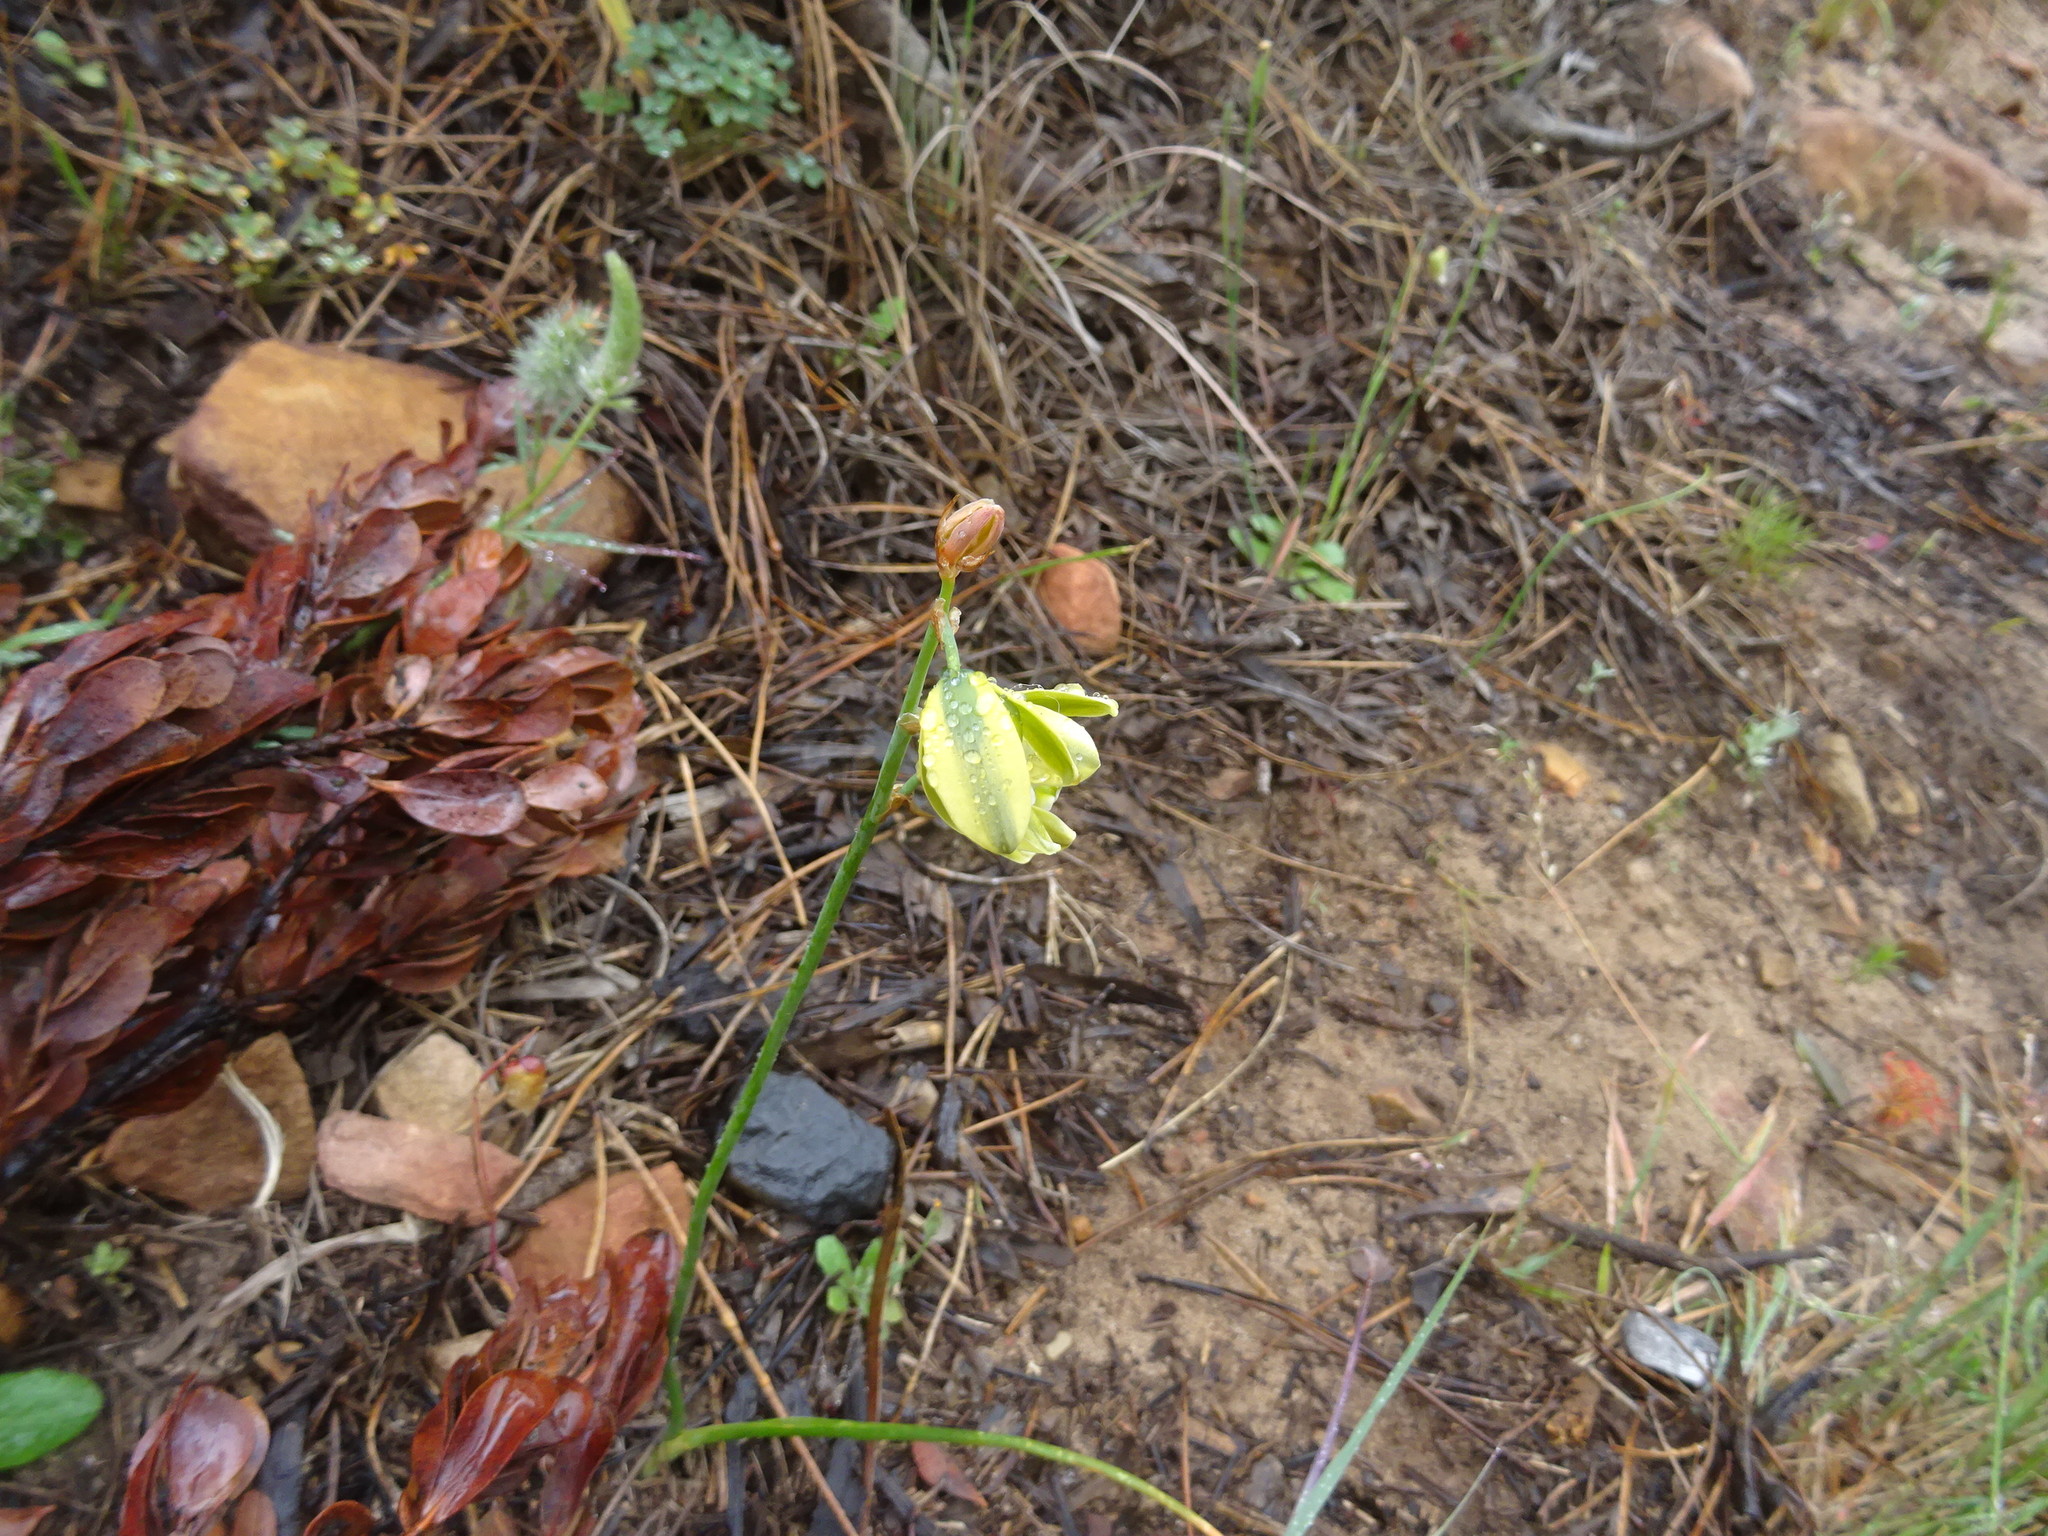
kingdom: Plantae
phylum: Tracheophyta
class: Liliopsida
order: Asparagales
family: Asparagaceae
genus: Albuca
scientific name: Albuca juncifolia
